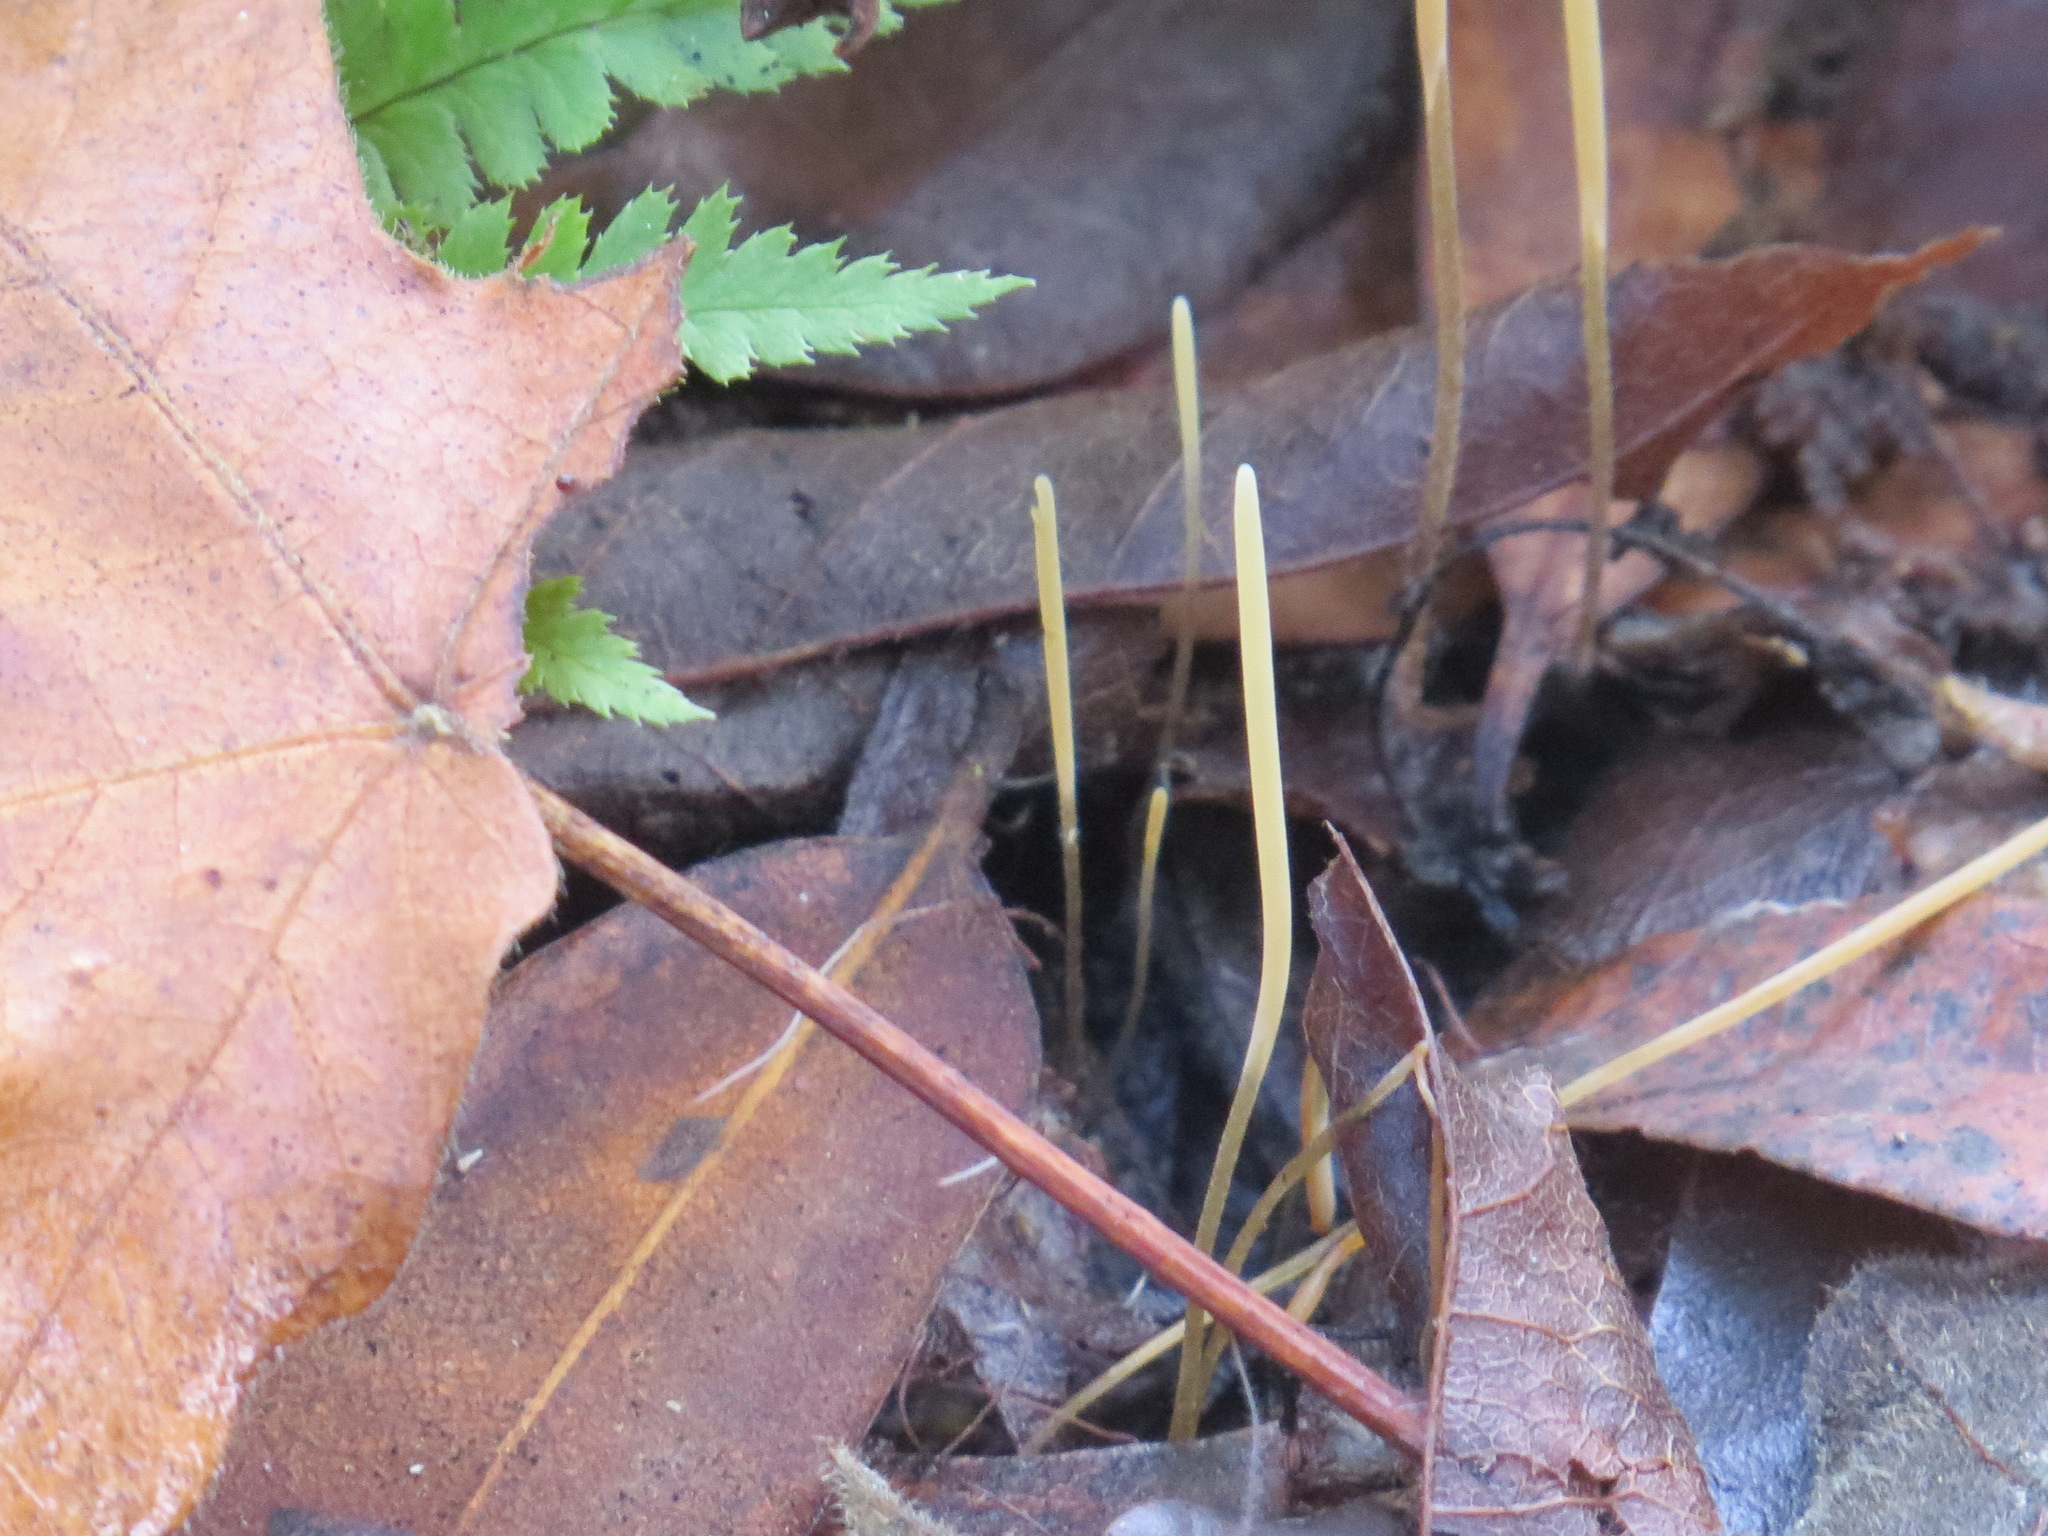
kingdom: Fungi
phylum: Basidiomycota
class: Agaricomycetes
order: Agaricales
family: Typhulaceae
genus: Typhula
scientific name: Typhula juncea
